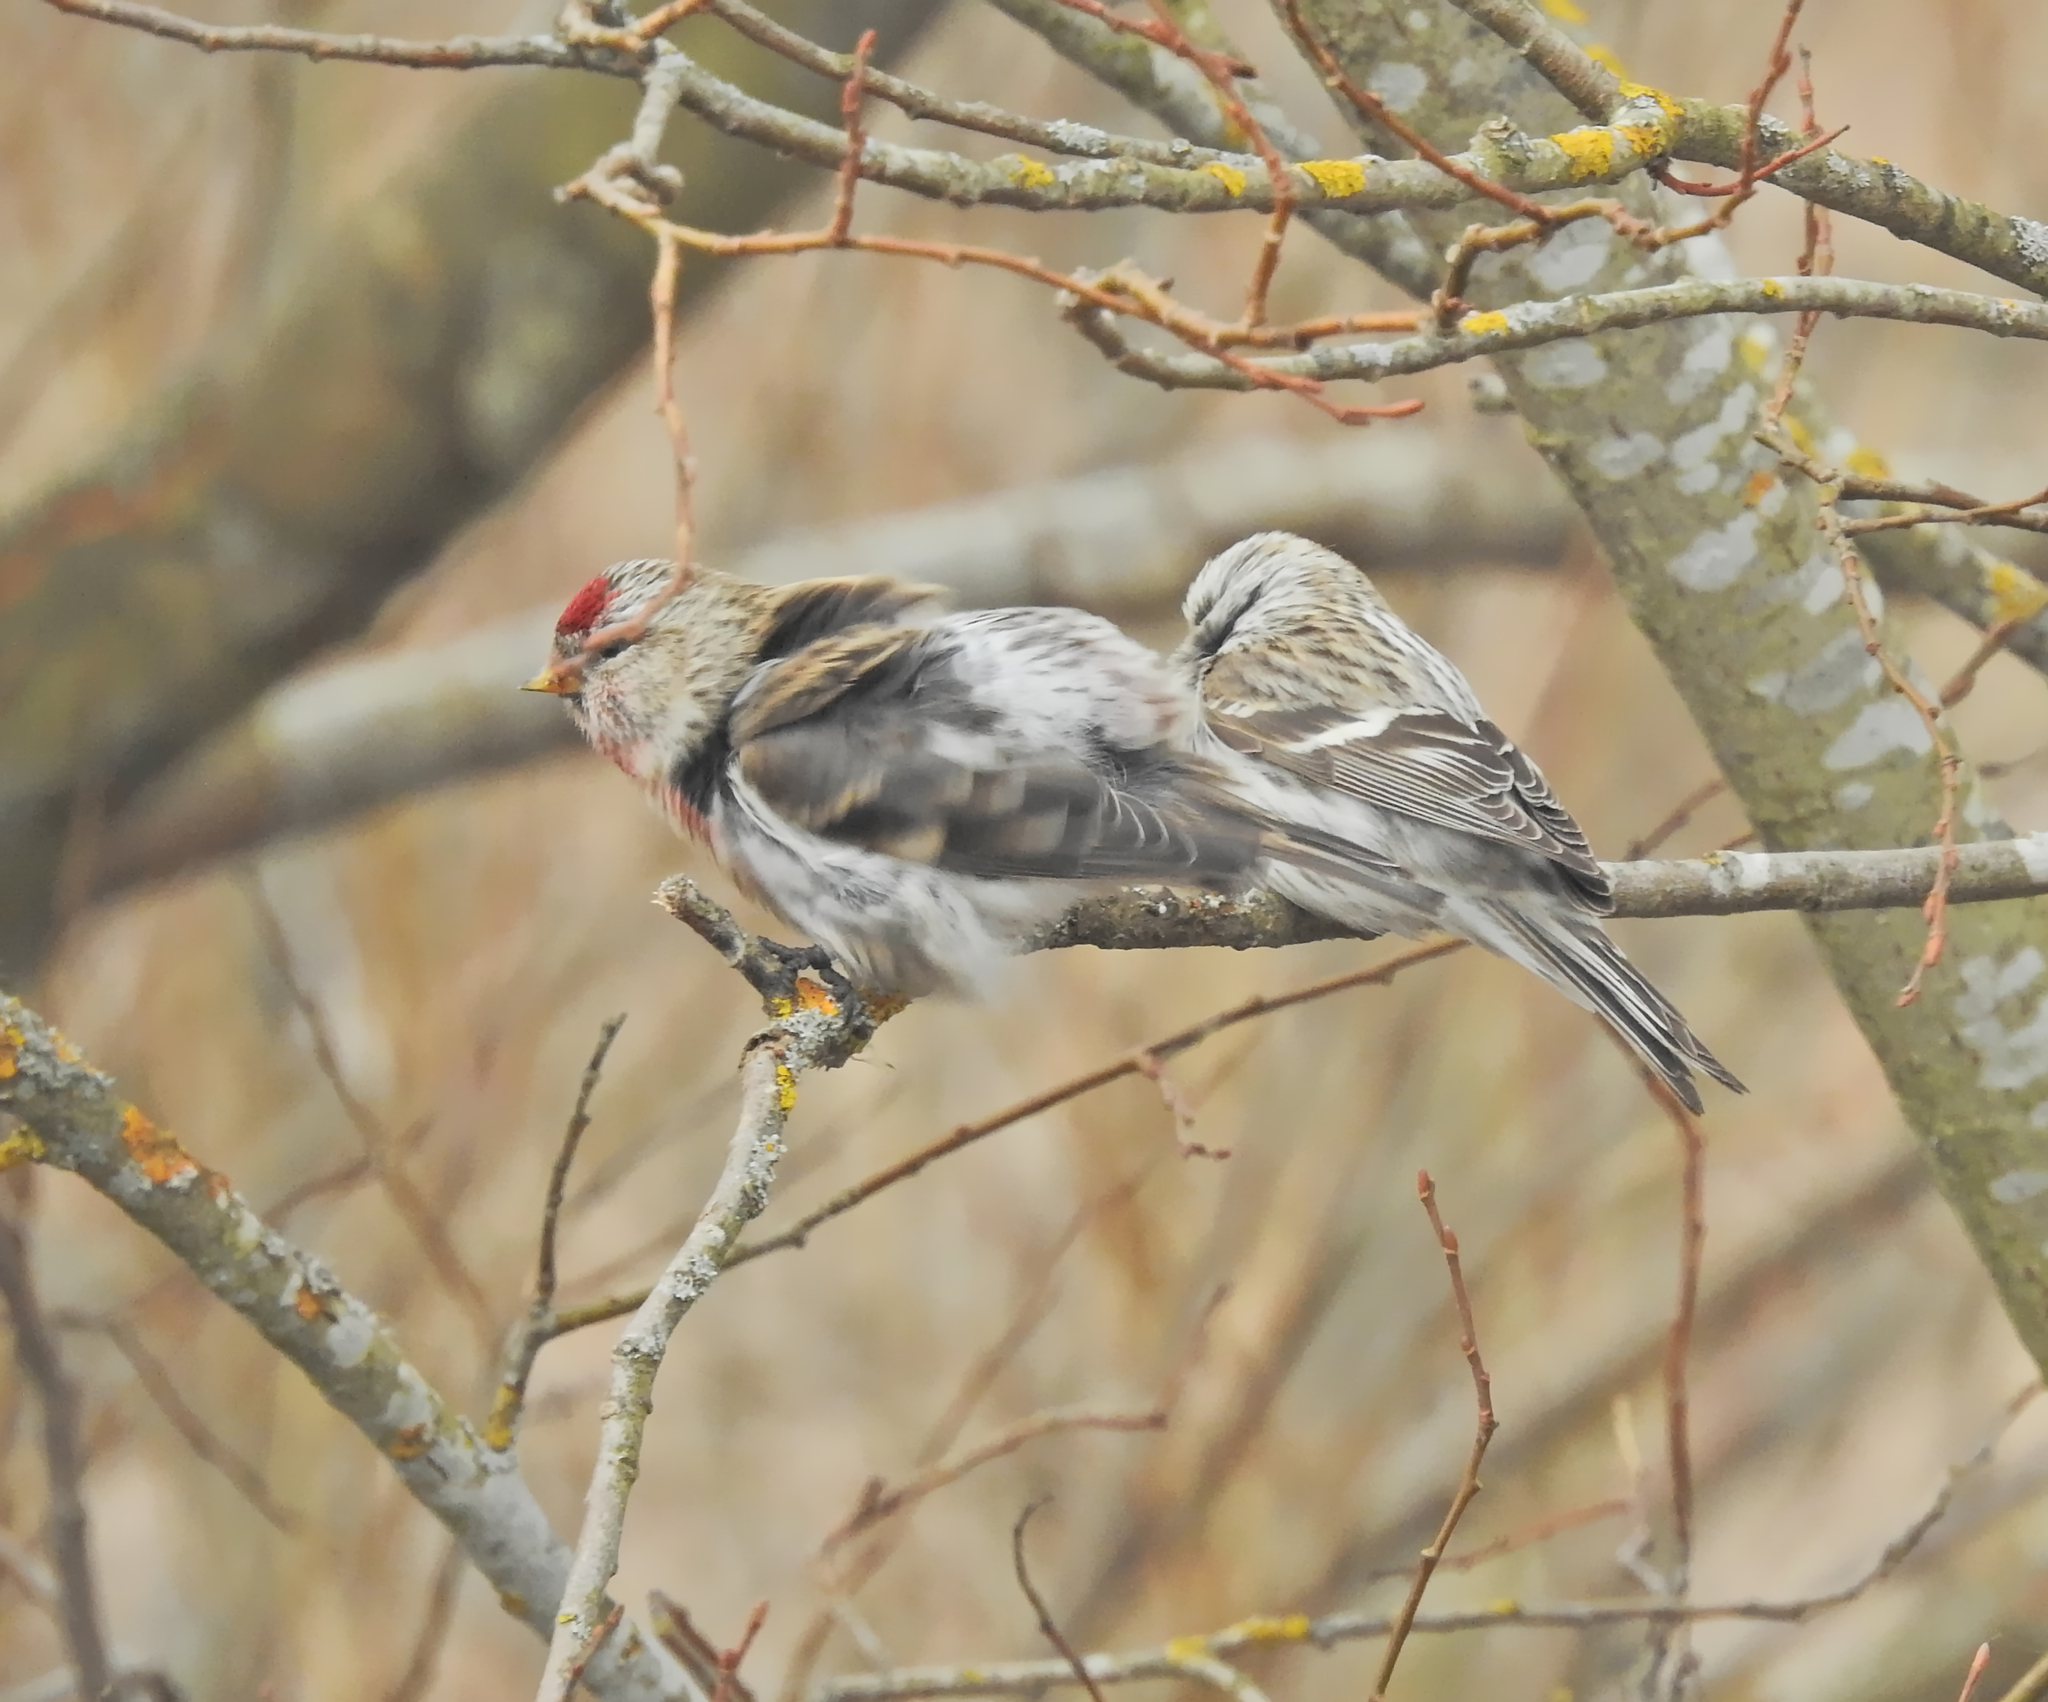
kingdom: Animalia
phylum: Chordata
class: Aves
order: Passeriformes
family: Fringillidae
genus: Acanthis
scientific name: Acanthis flammea
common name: Common redpoll
